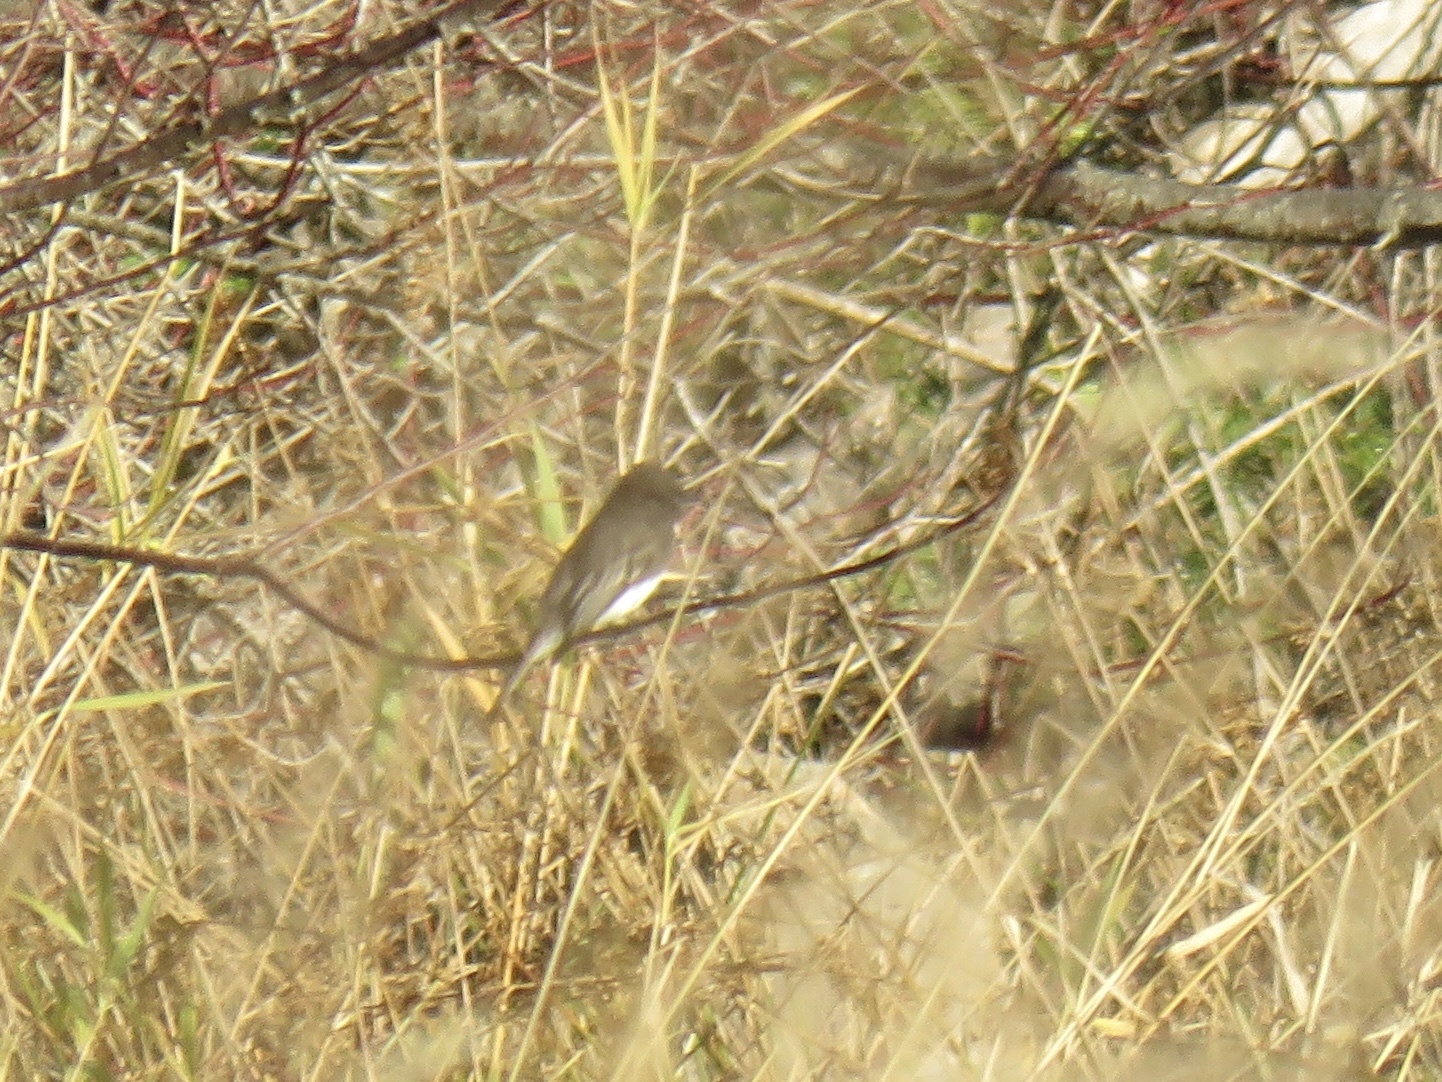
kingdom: Animalia
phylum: Chordata
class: Aves
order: Passeriformes
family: Tyrannidae
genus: Sayornis
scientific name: Sayornis nigricans
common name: Black phoebe
